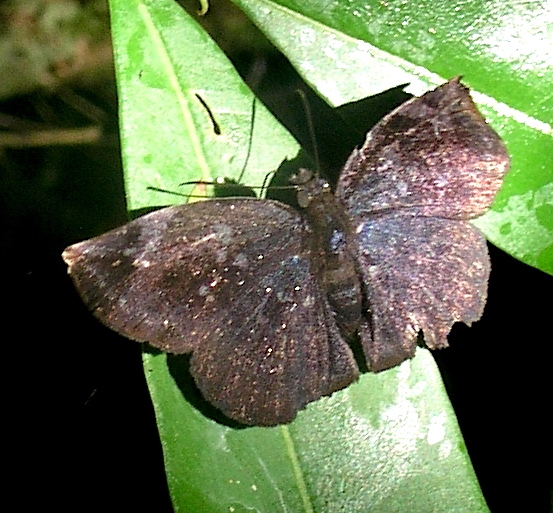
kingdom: Animalia
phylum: Arthropoda
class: Insecta
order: Lepidoptera
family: Hesperiidae
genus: Achlyodes
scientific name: Achlyodes thraso
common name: Sickle-winged skipper
